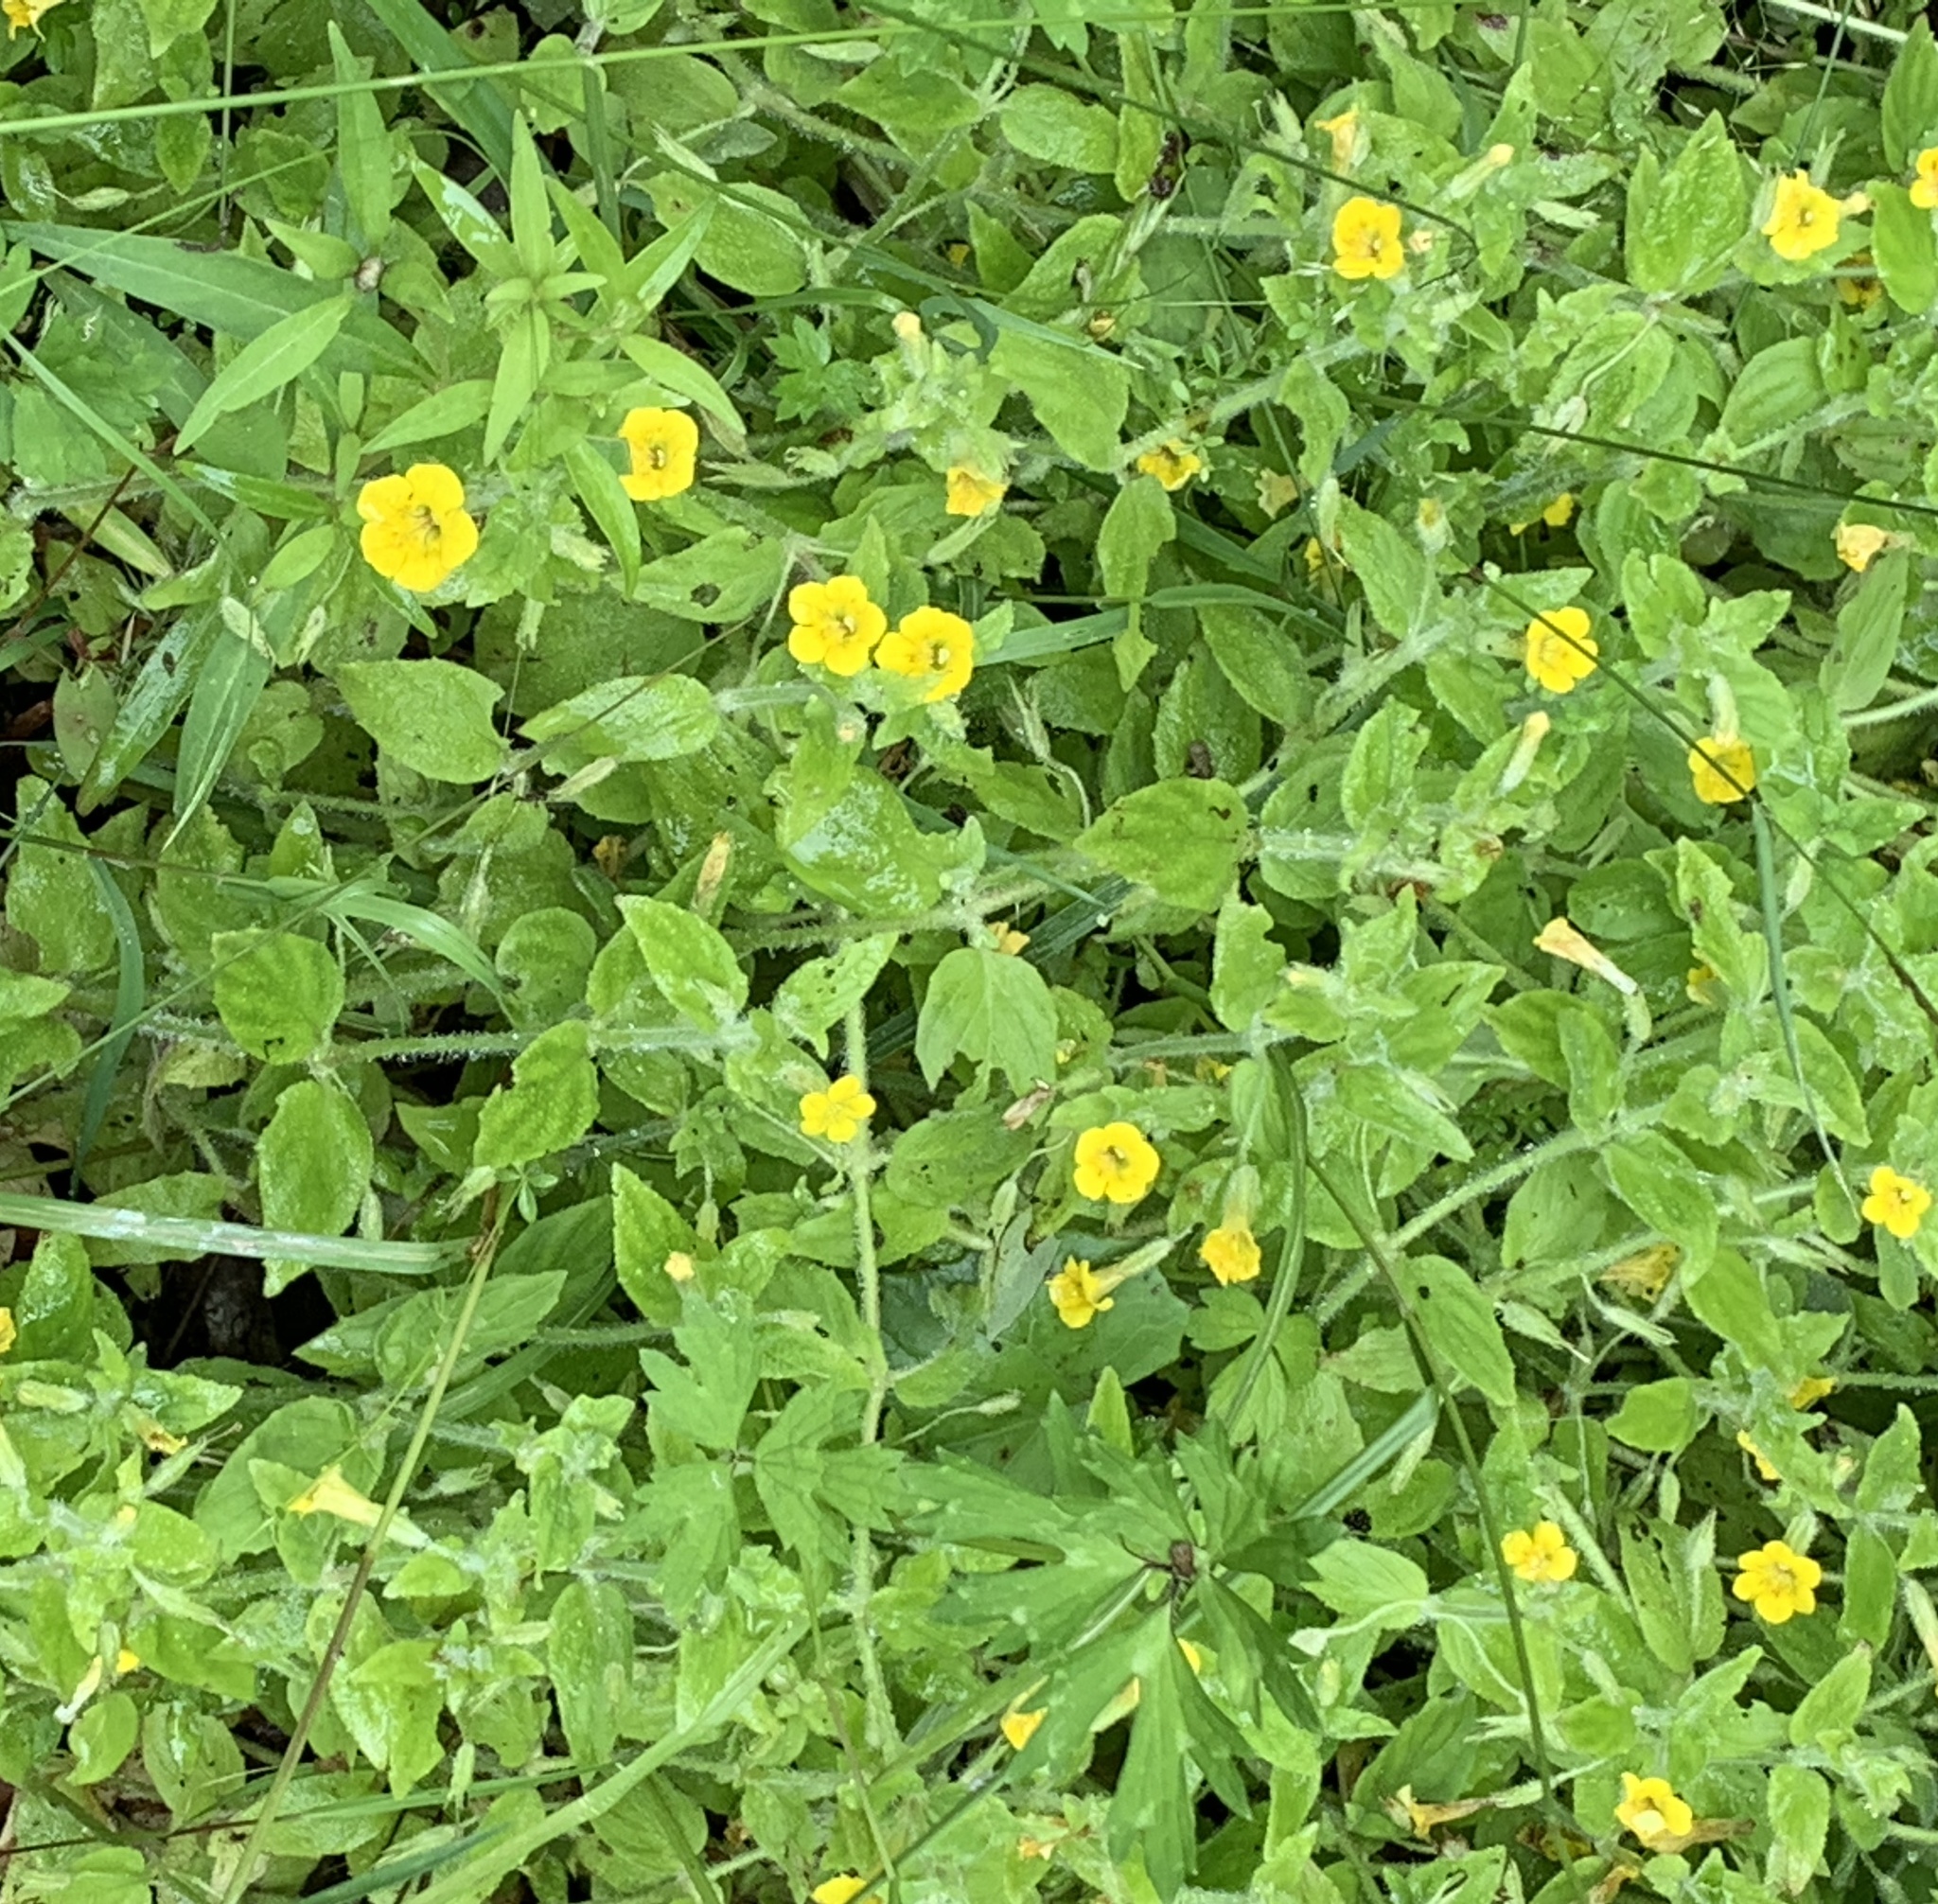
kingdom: Plantae
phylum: Tracheophyta
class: Magnoliopsida
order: Lamiales
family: Phrymaceae
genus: Erythranthe
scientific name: Erythranthe moschata
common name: Muskflower
